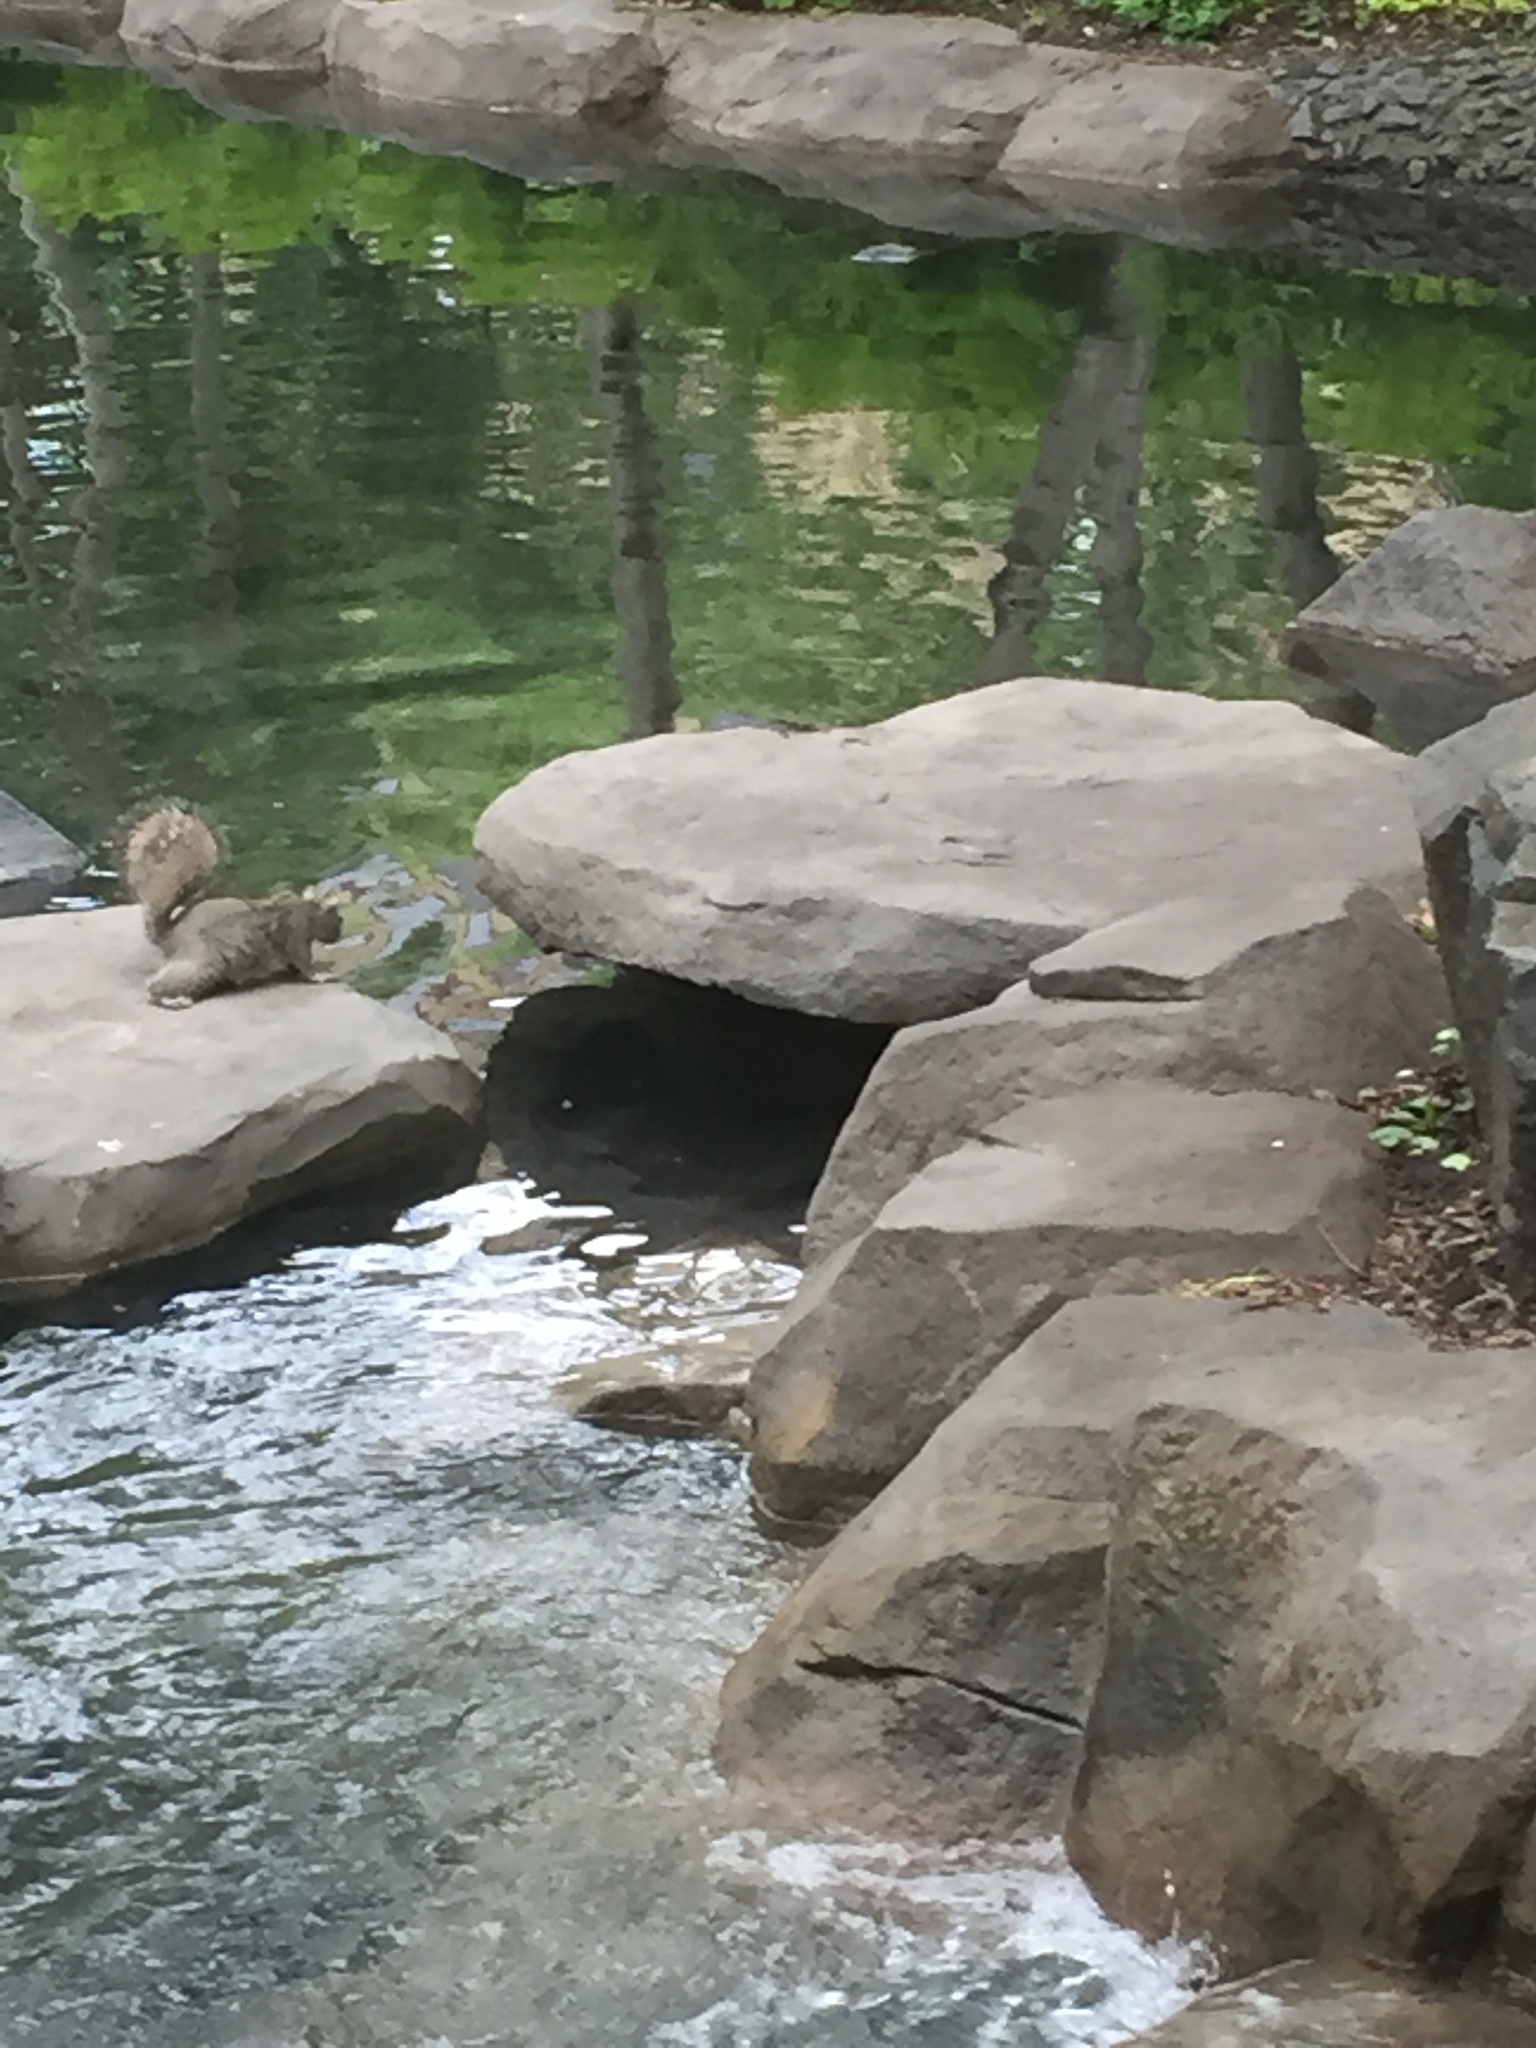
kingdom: Animalia
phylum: Chordata
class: Mammalia
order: Rodentia
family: Sciuridae
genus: Sciurus
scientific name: Sciurus carolinensis
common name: Eastern gray squirrel
